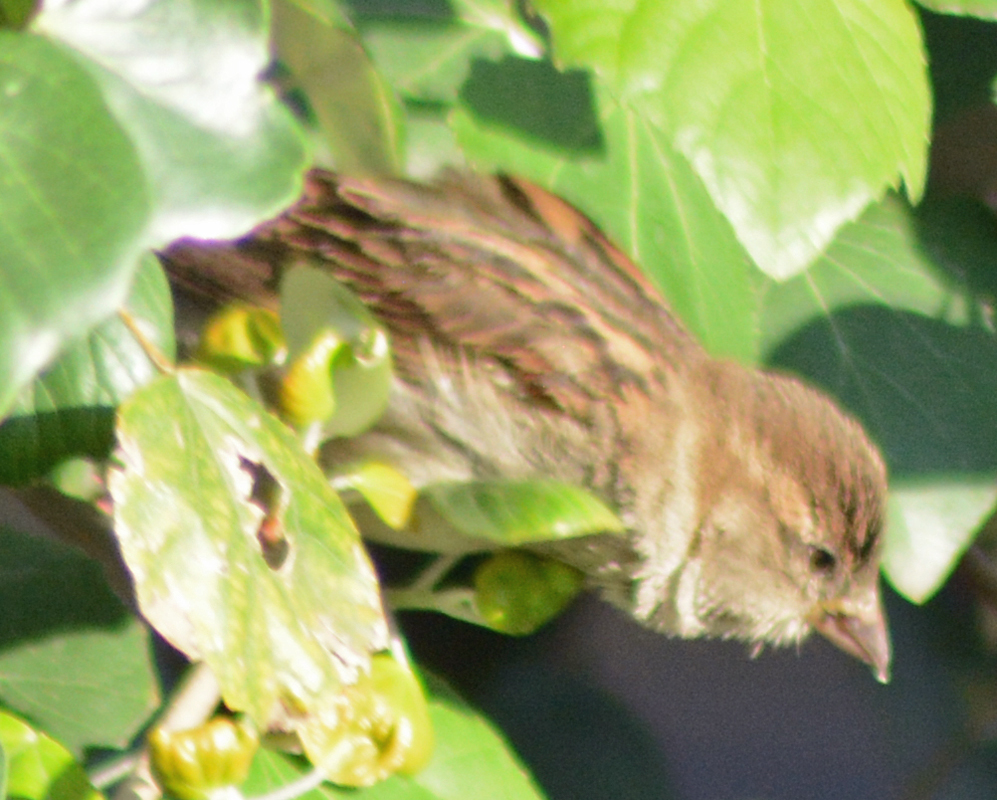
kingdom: Animalia
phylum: Chordata
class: Aves
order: Passeriformes
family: Passeridae
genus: Passer
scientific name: Passer domesticus
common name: House sparrow
